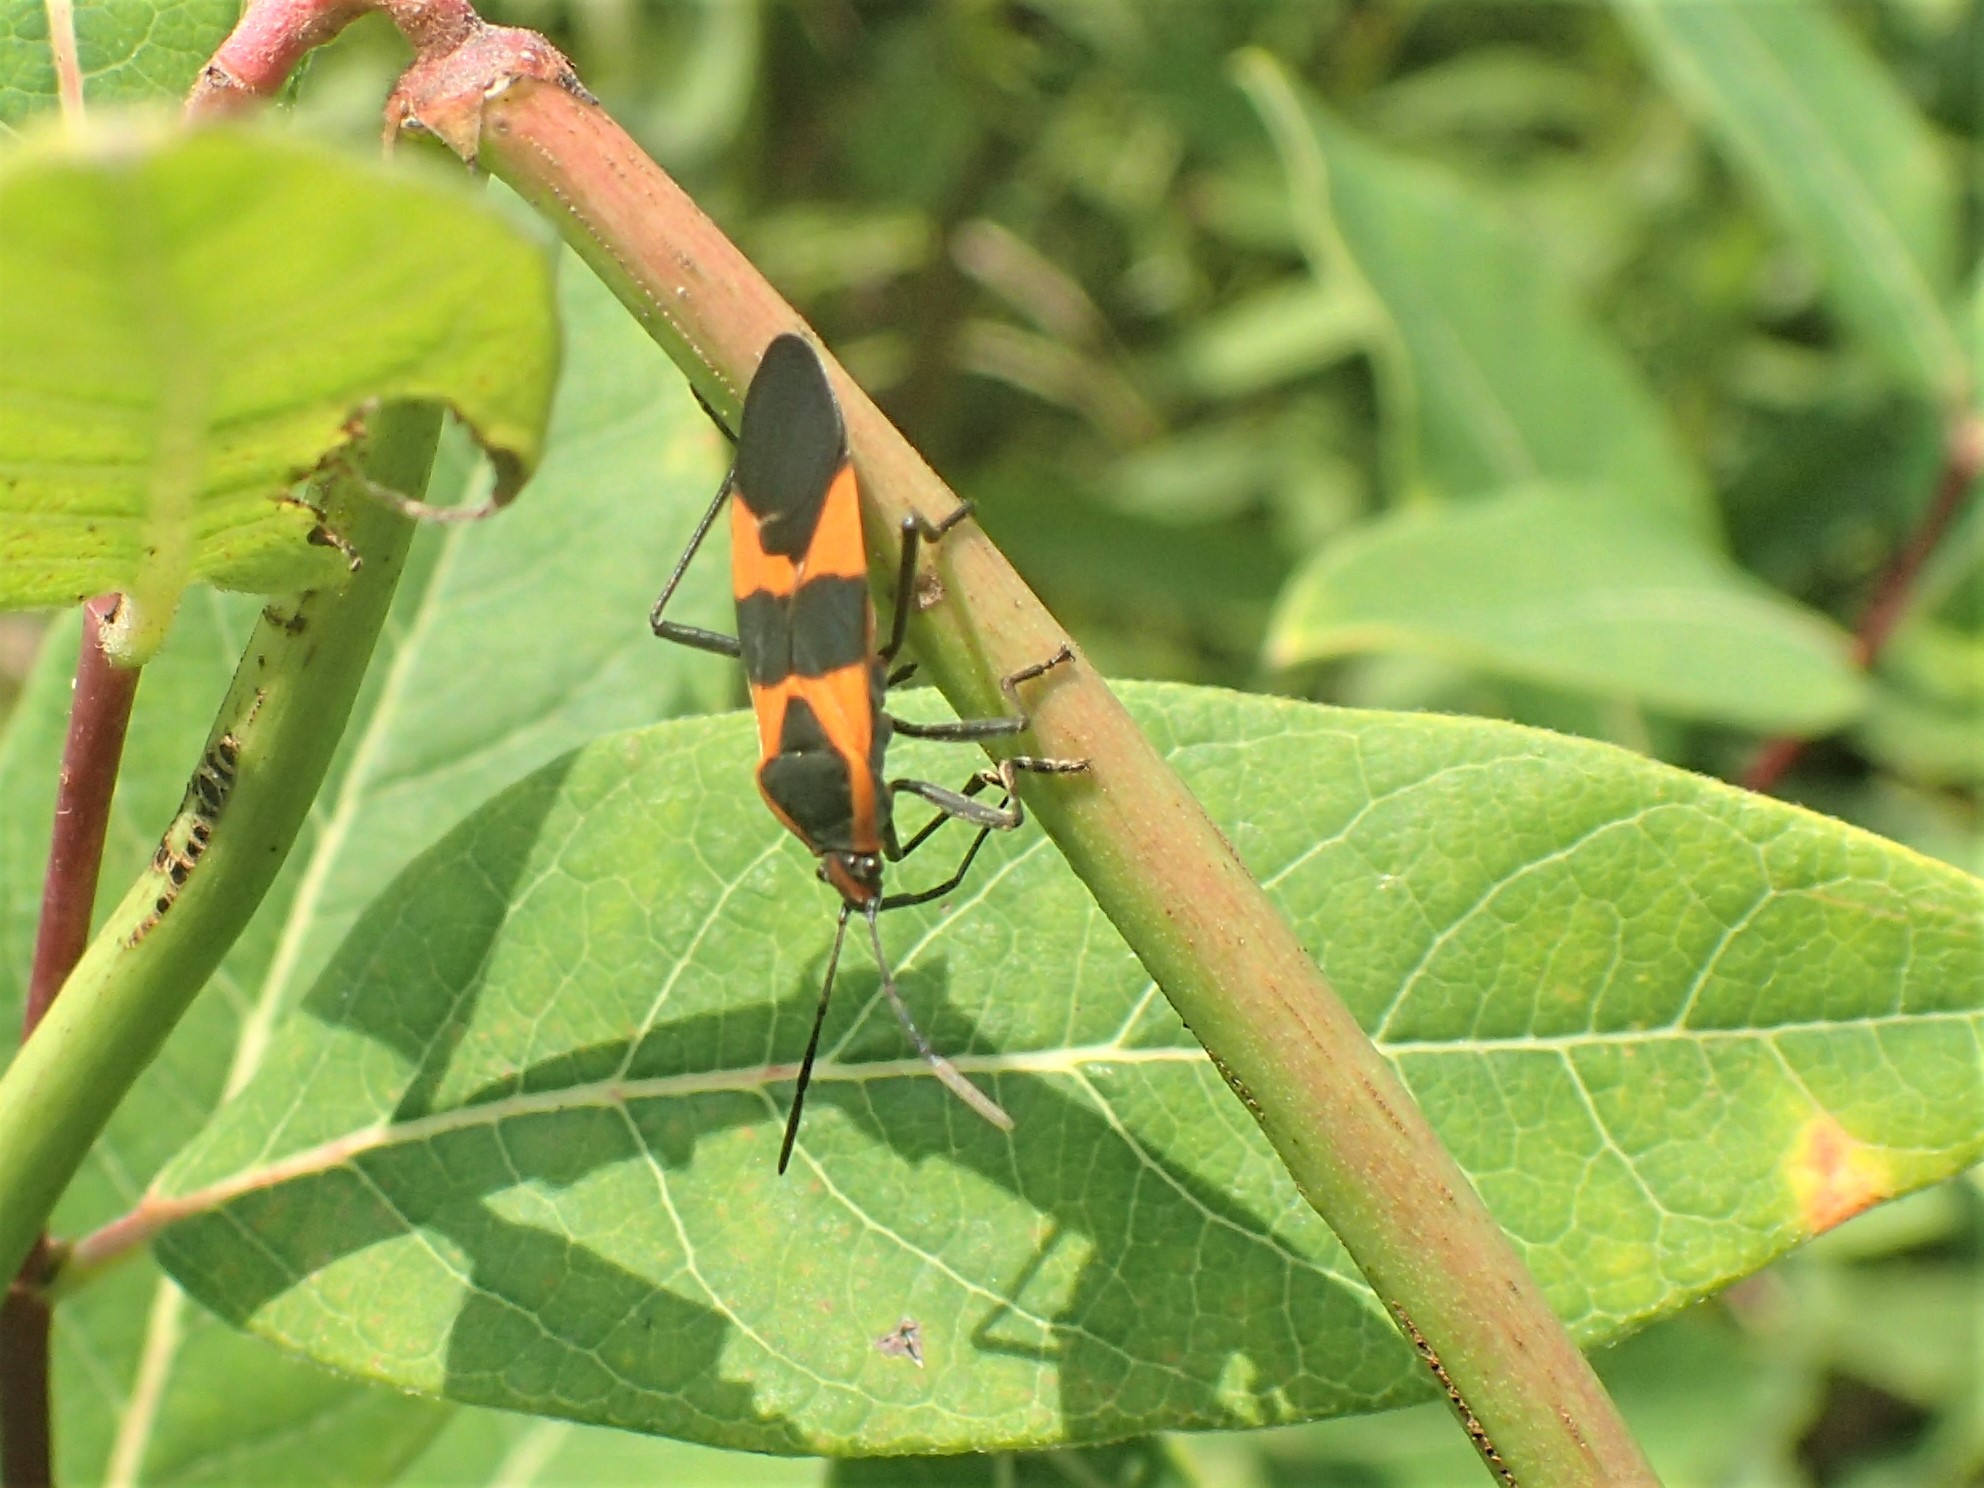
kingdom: Animalia
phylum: Arthropoda
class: Insecta
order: Hemiptera
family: Lygaeidae
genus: Oncopeltus
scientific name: Oncopeltus fasciatus
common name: Large milkweed bug
